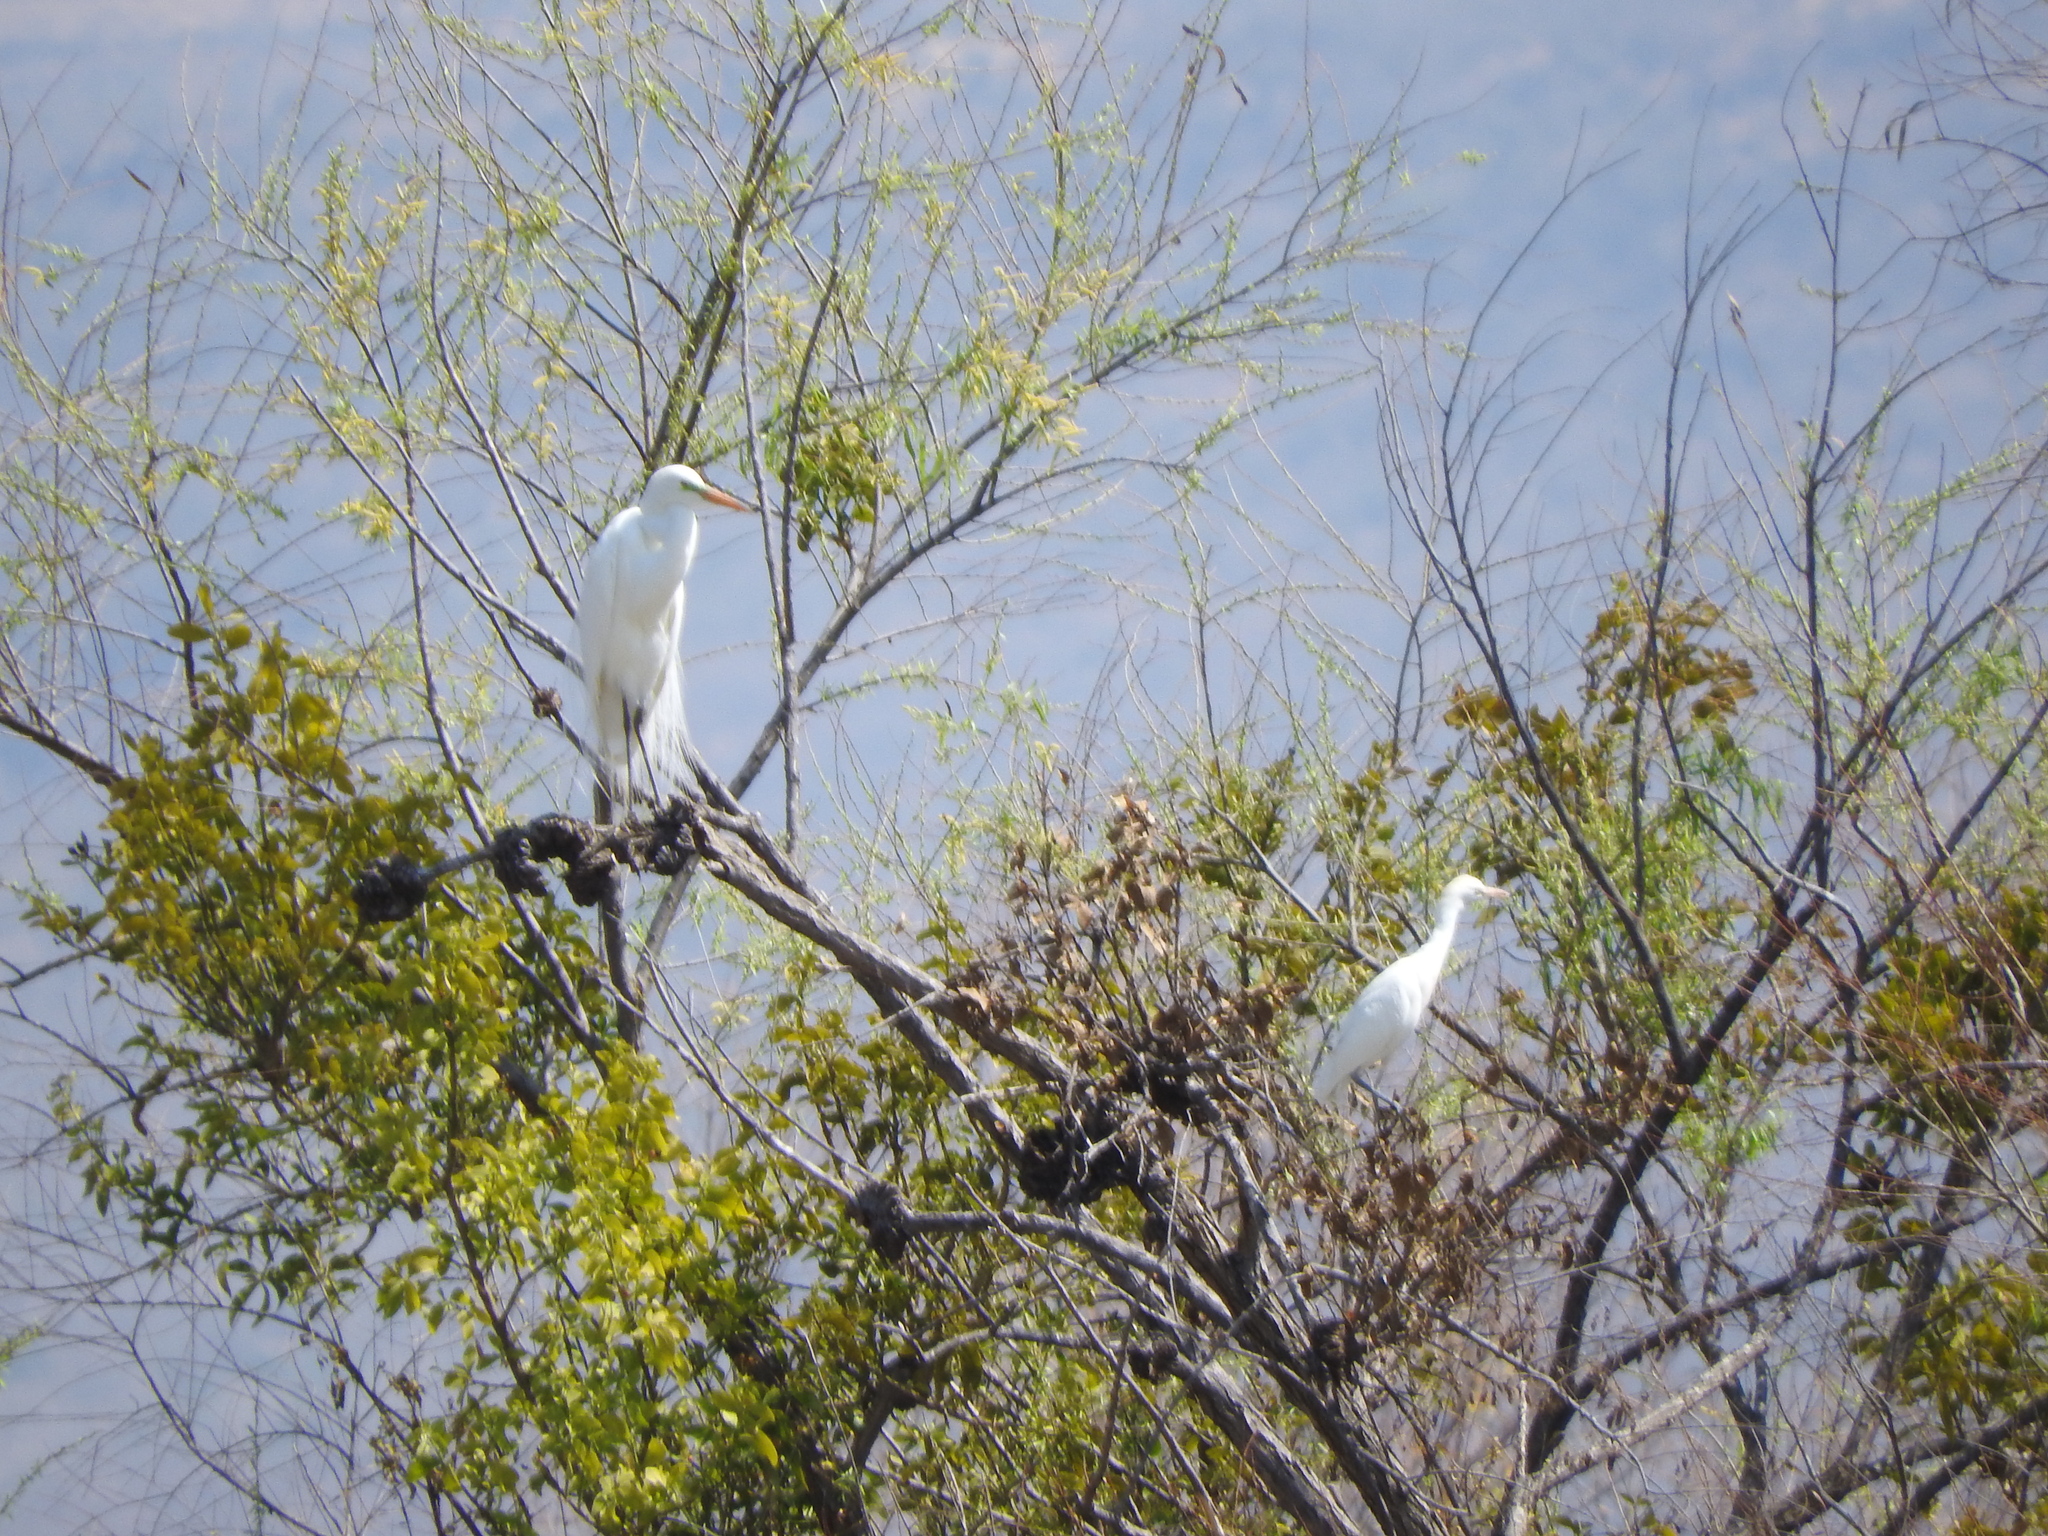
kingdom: Animalia
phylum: Chordata
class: Aves
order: Pelecaniformes
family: Ardeidae
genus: Ardea
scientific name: Ardea alba
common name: Great egret
